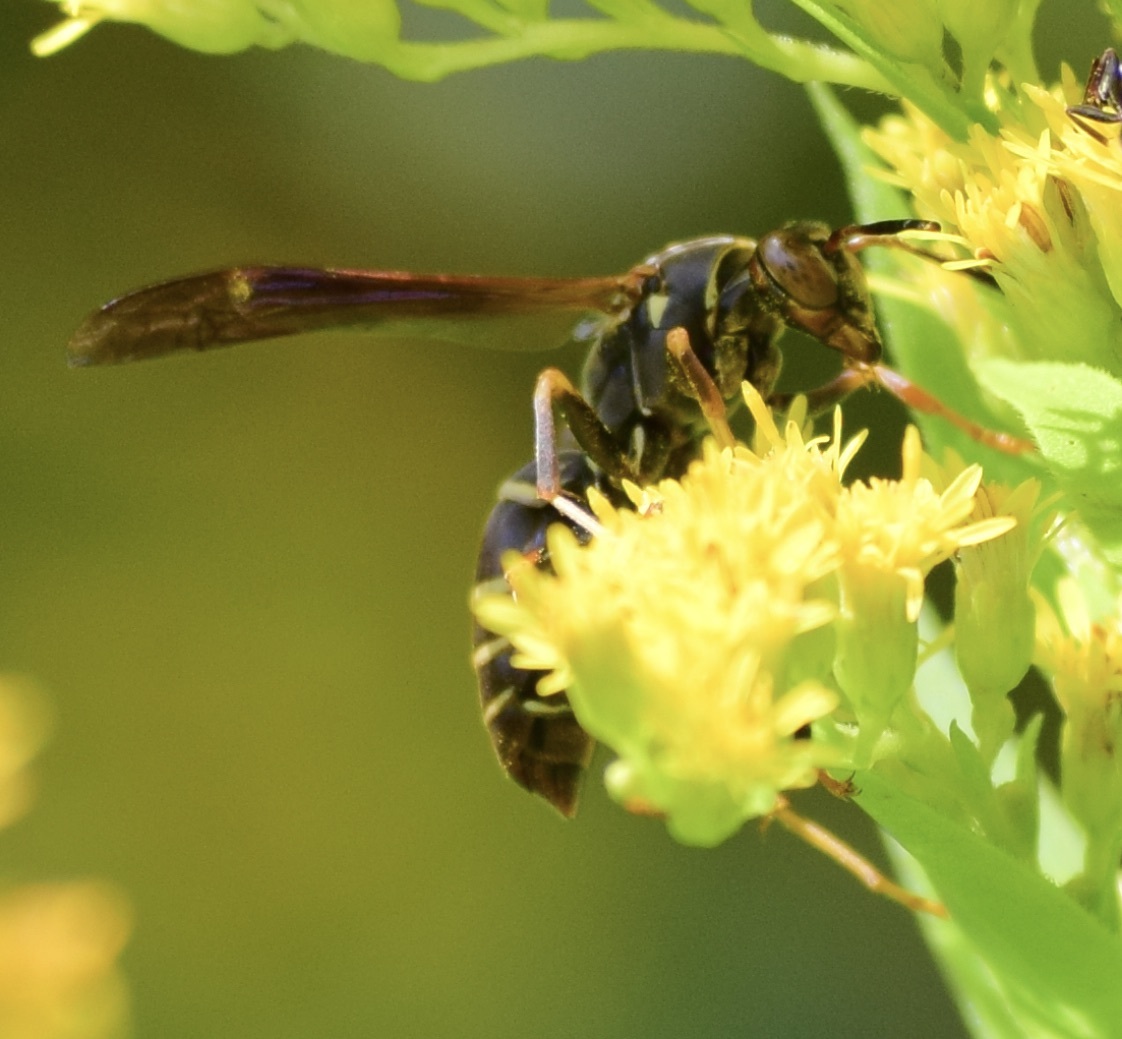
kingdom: Animalia
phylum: Arthropoda
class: Insecta
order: Hymenoptera
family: Eumenidae
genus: Polistes
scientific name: Polistes fuscatus
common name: Dark paper wasp
